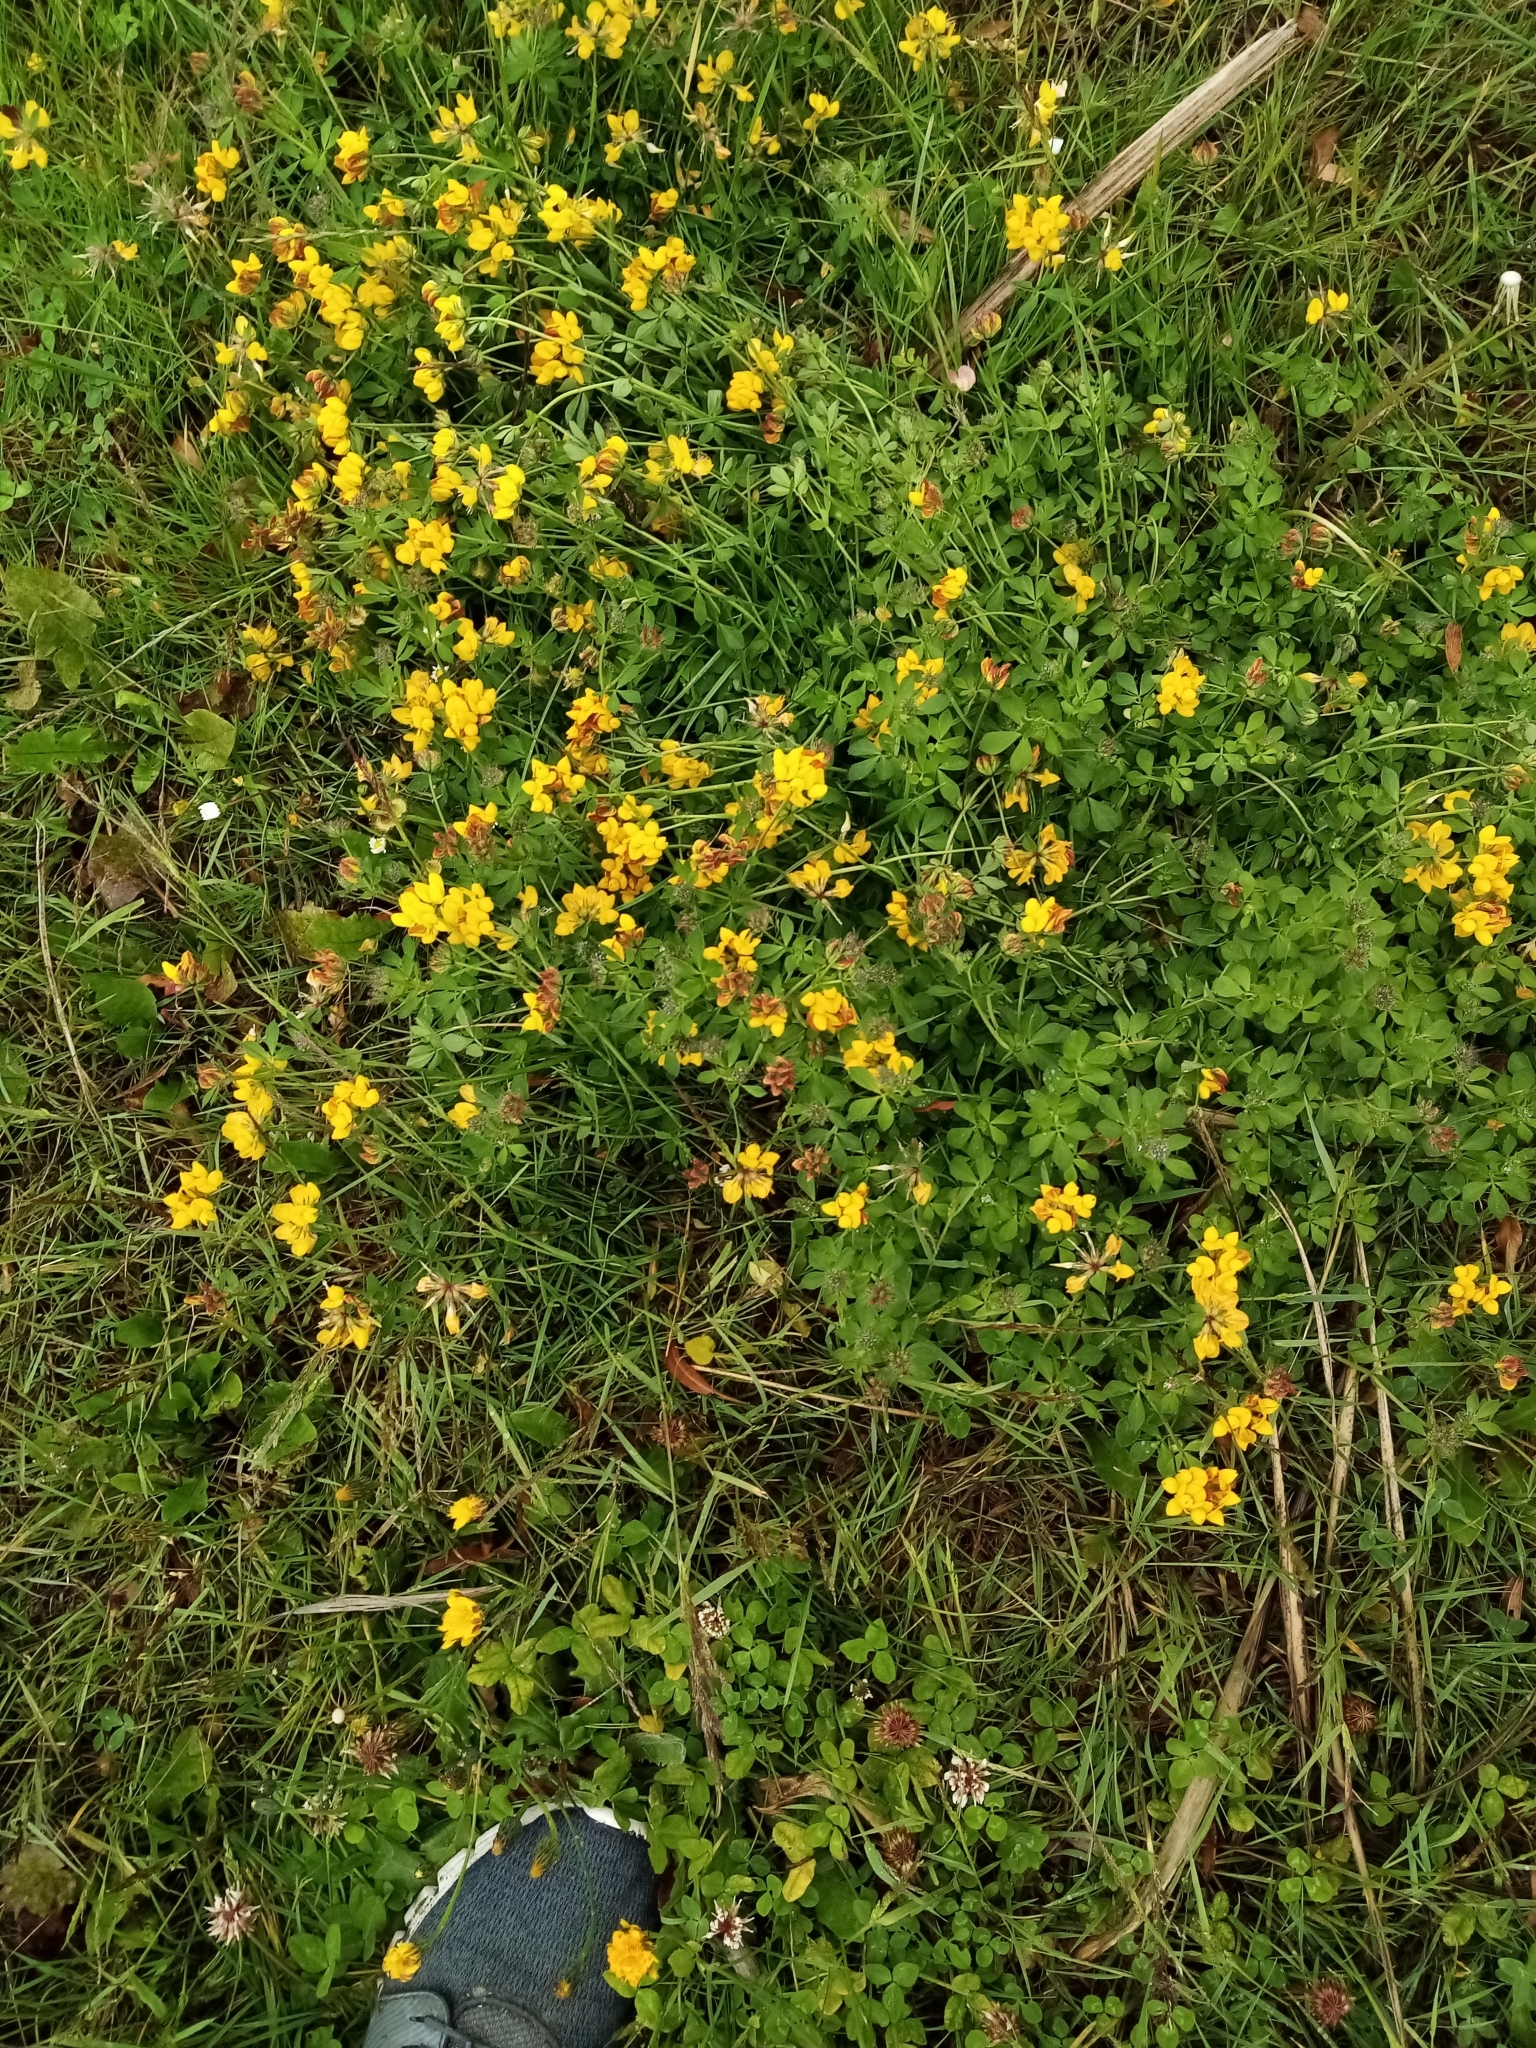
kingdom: Plantae
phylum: Tracheophyta
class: Magnoliopsida
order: Fabales
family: Fabaceae
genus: Lotus
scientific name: Lotus pedunculatus
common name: Greater birdsfoot-trefoil
